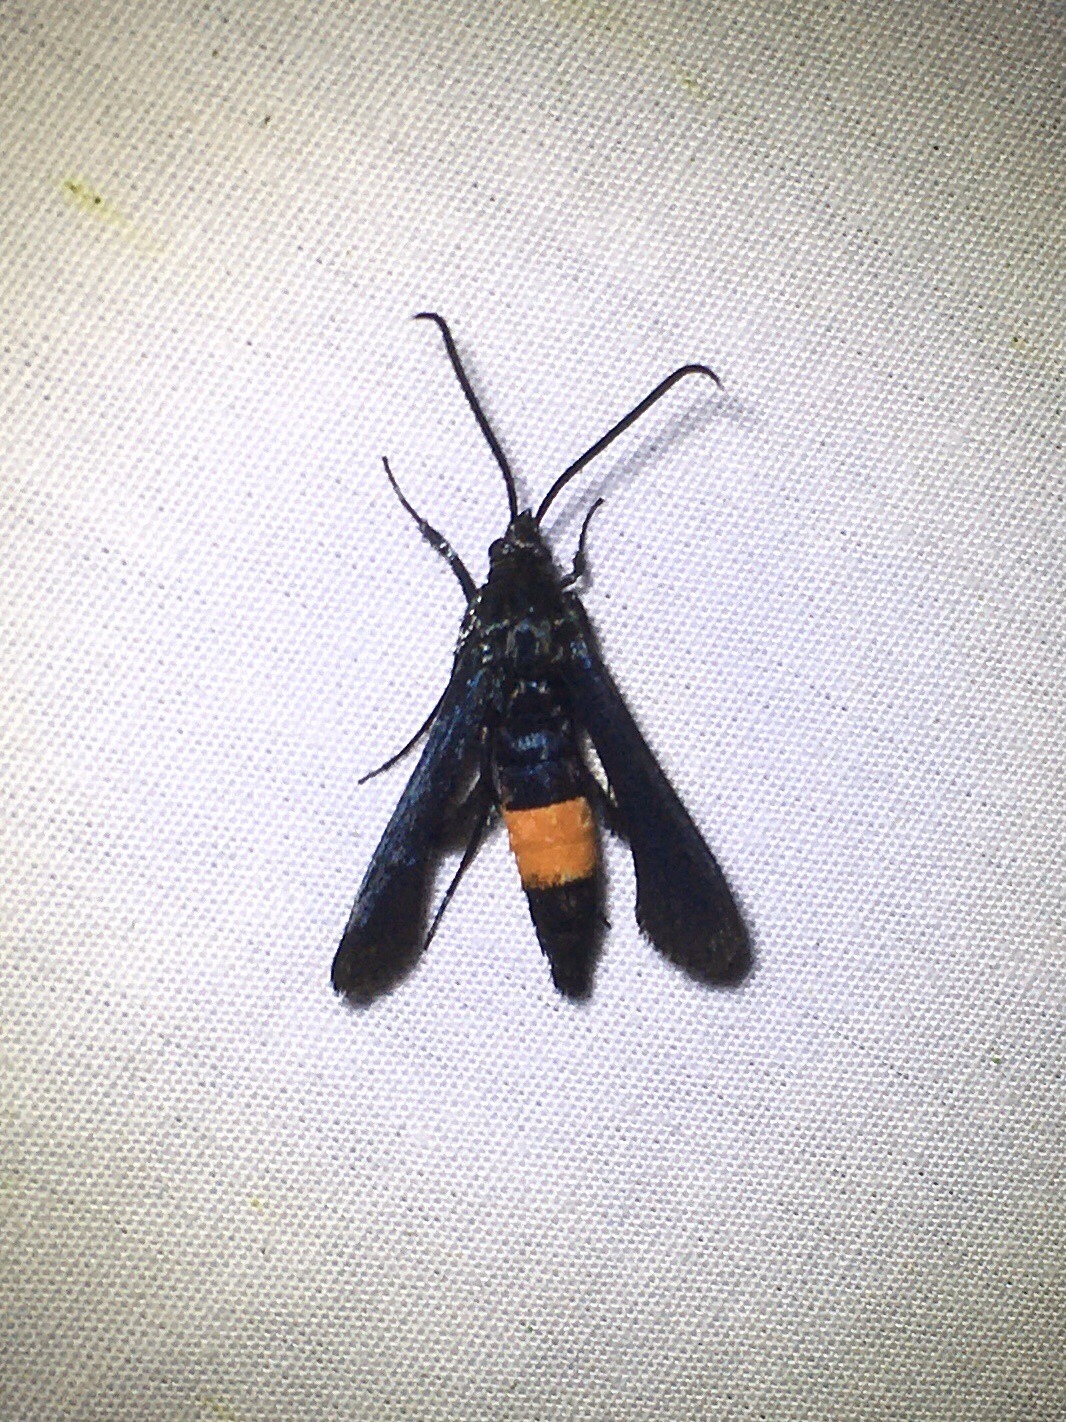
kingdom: Animalia
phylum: Arthropoda
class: Insecta
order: Lepidoptera
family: Sesiidae
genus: Synanthedon
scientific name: Synanthedon exitiosa
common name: Peachtree borer moth
